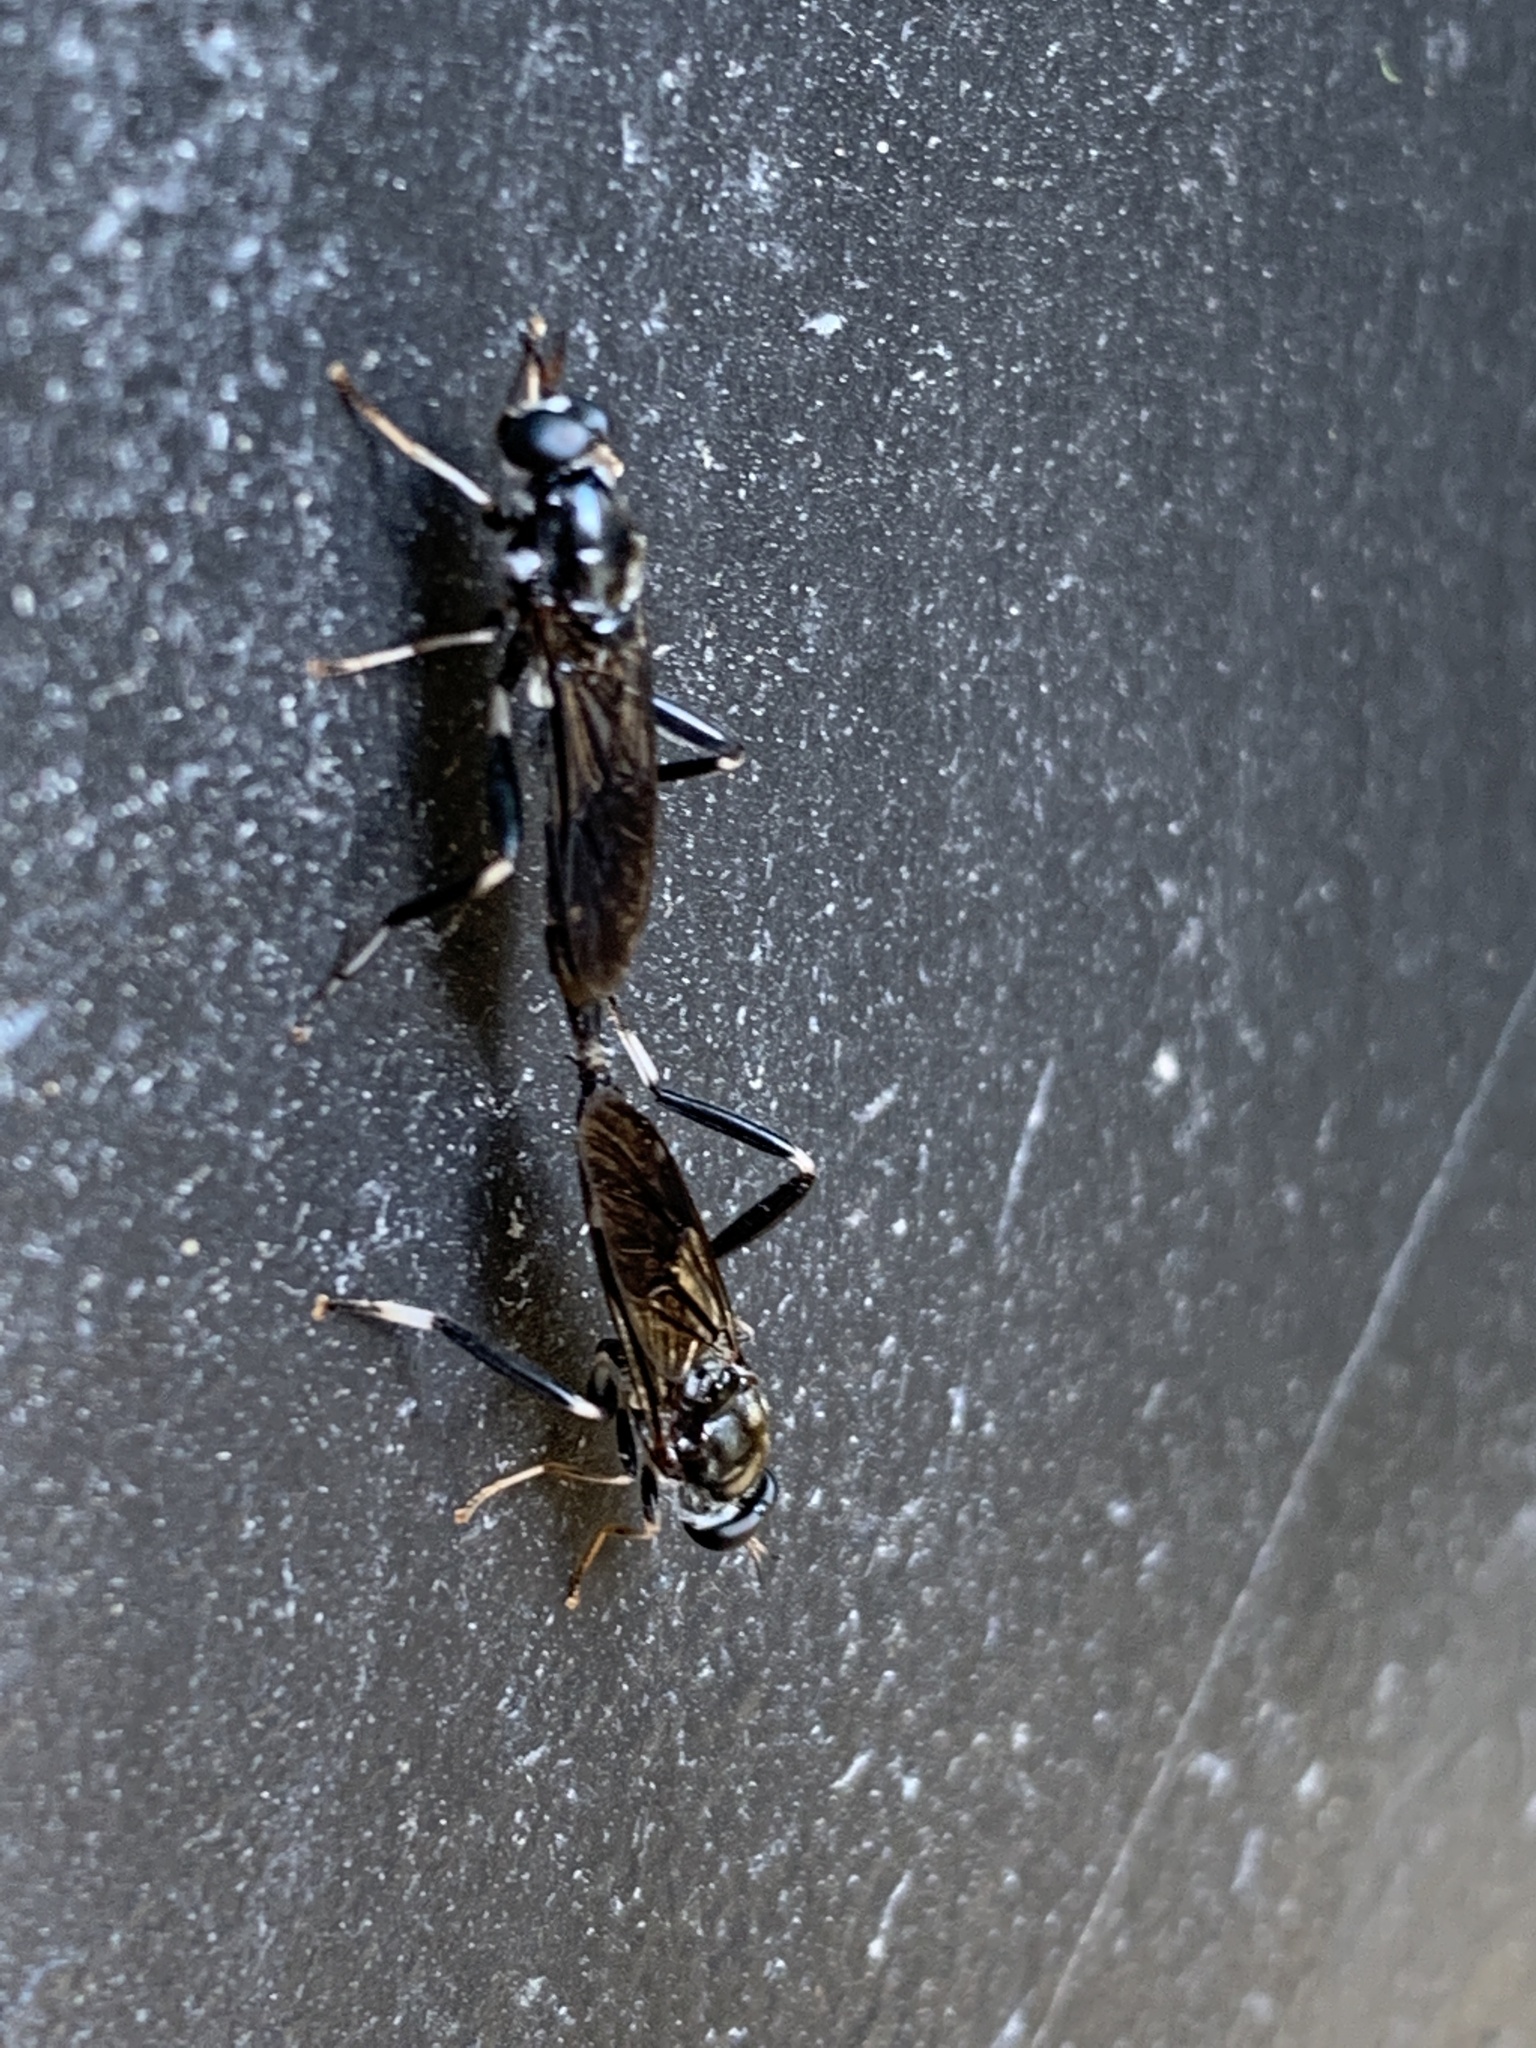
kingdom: Animalia
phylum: Arthropoda
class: Insecta
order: Diptera
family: Stratiomyidae
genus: Exaireta
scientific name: Exaireta spinigera
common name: Blue soldier fly
